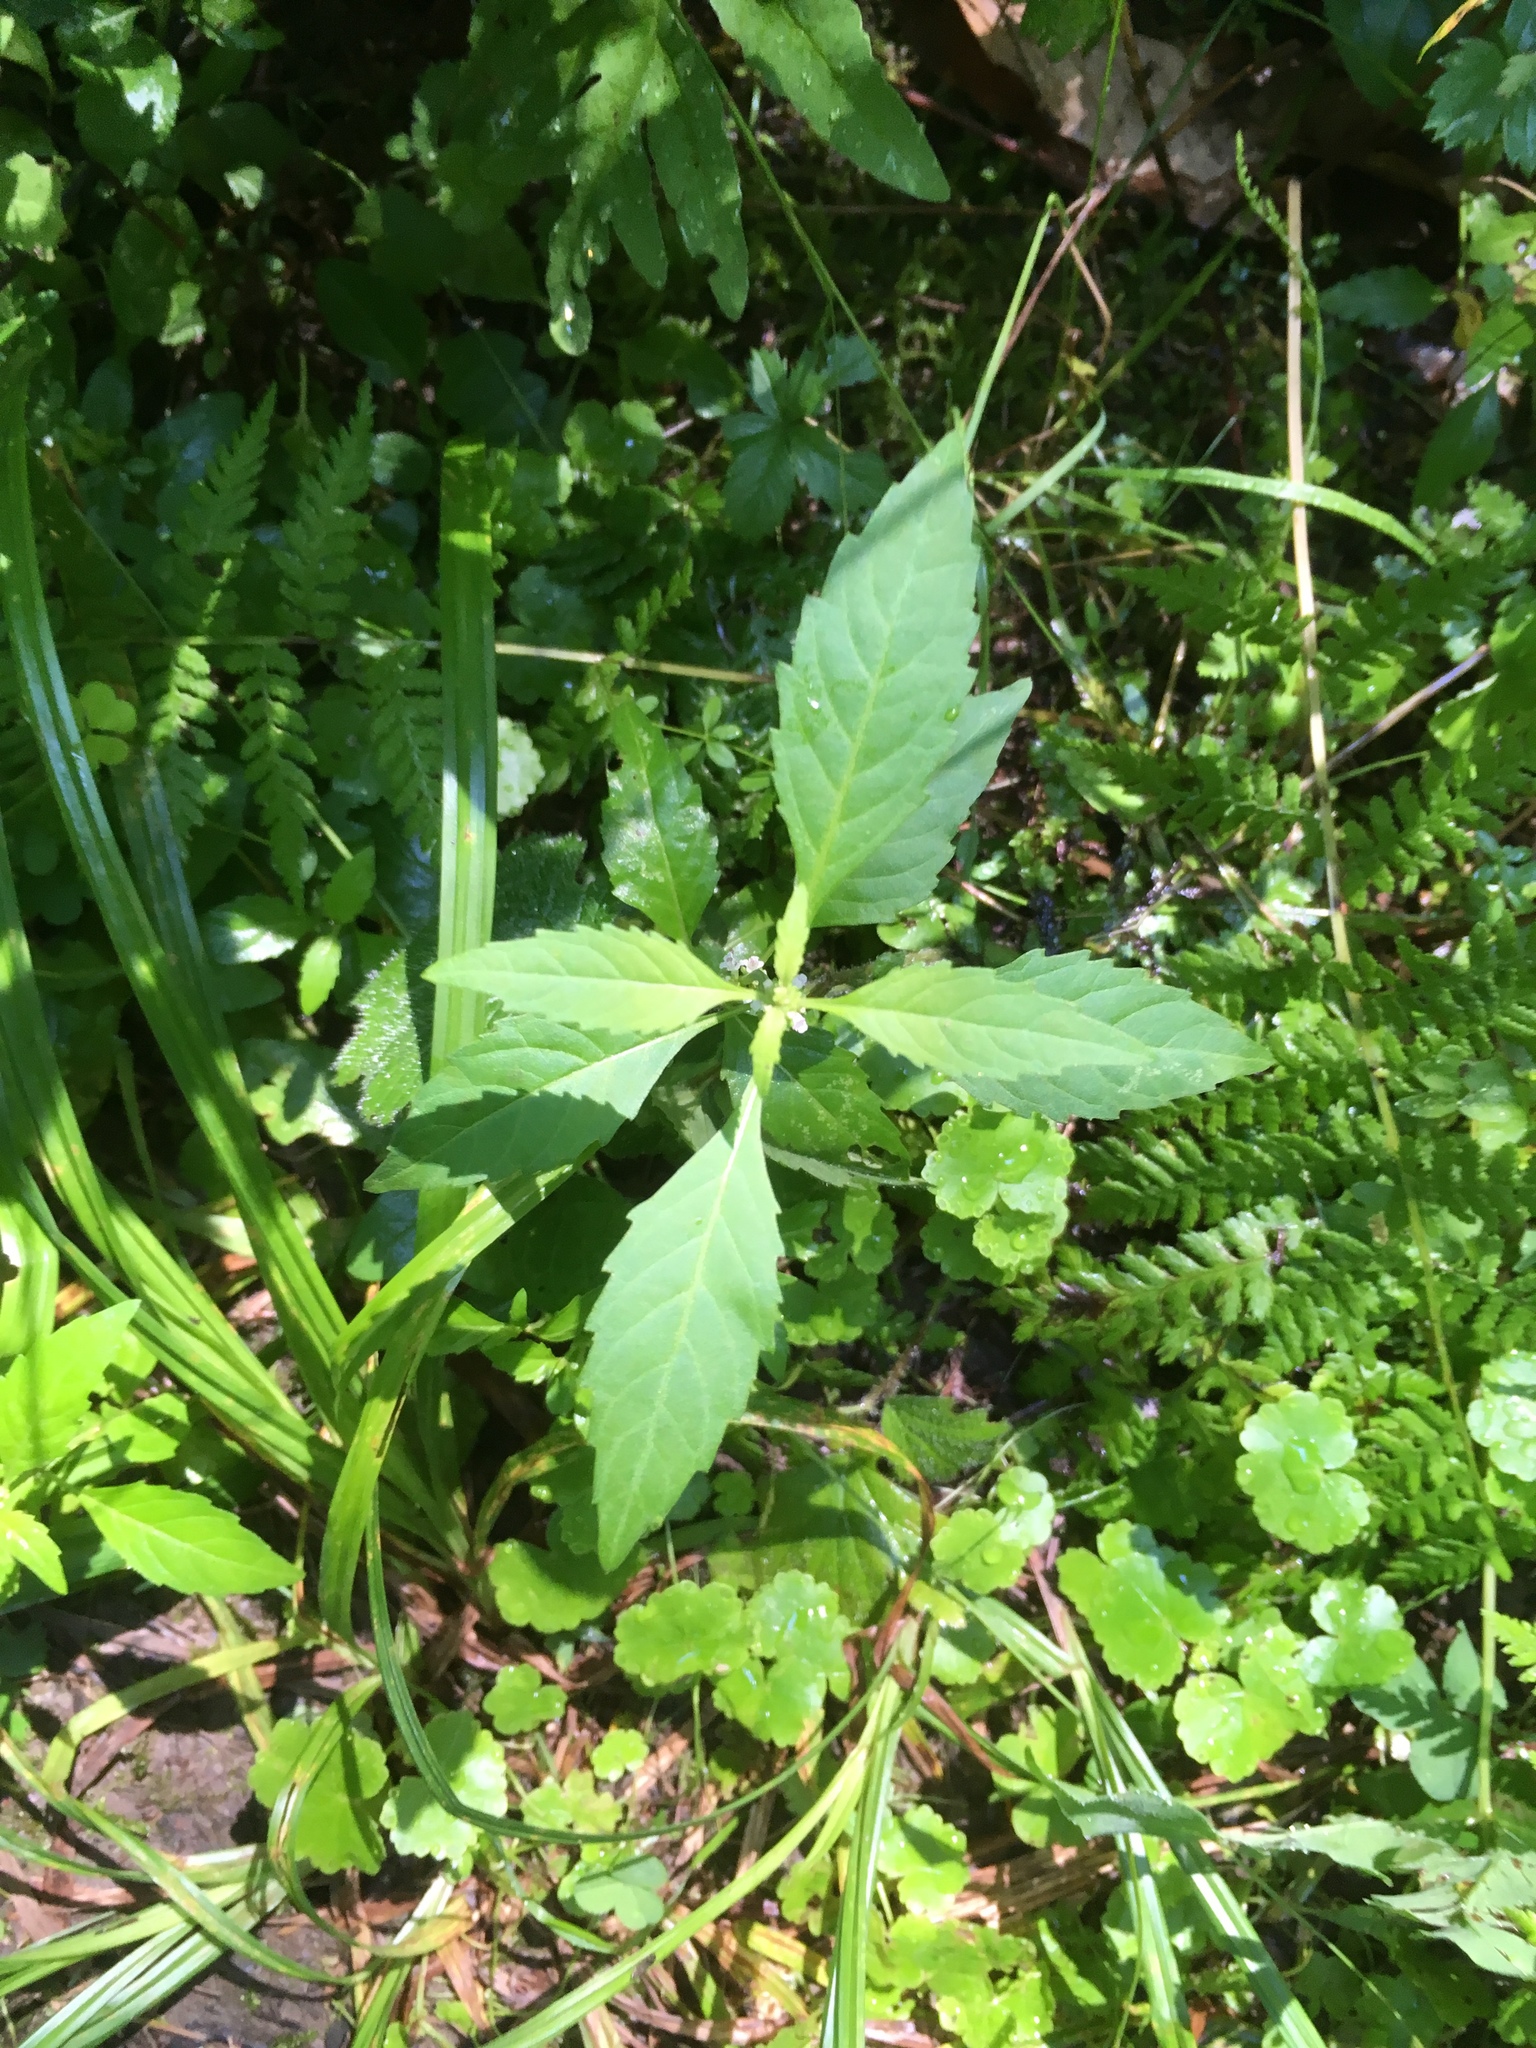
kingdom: Plantae
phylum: Tracheophyta
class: Magnoliopsida
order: Lamiales
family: Lamiaceae
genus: Lycopus
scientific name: Lycopus uniflorus
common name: Northern bugleweed
